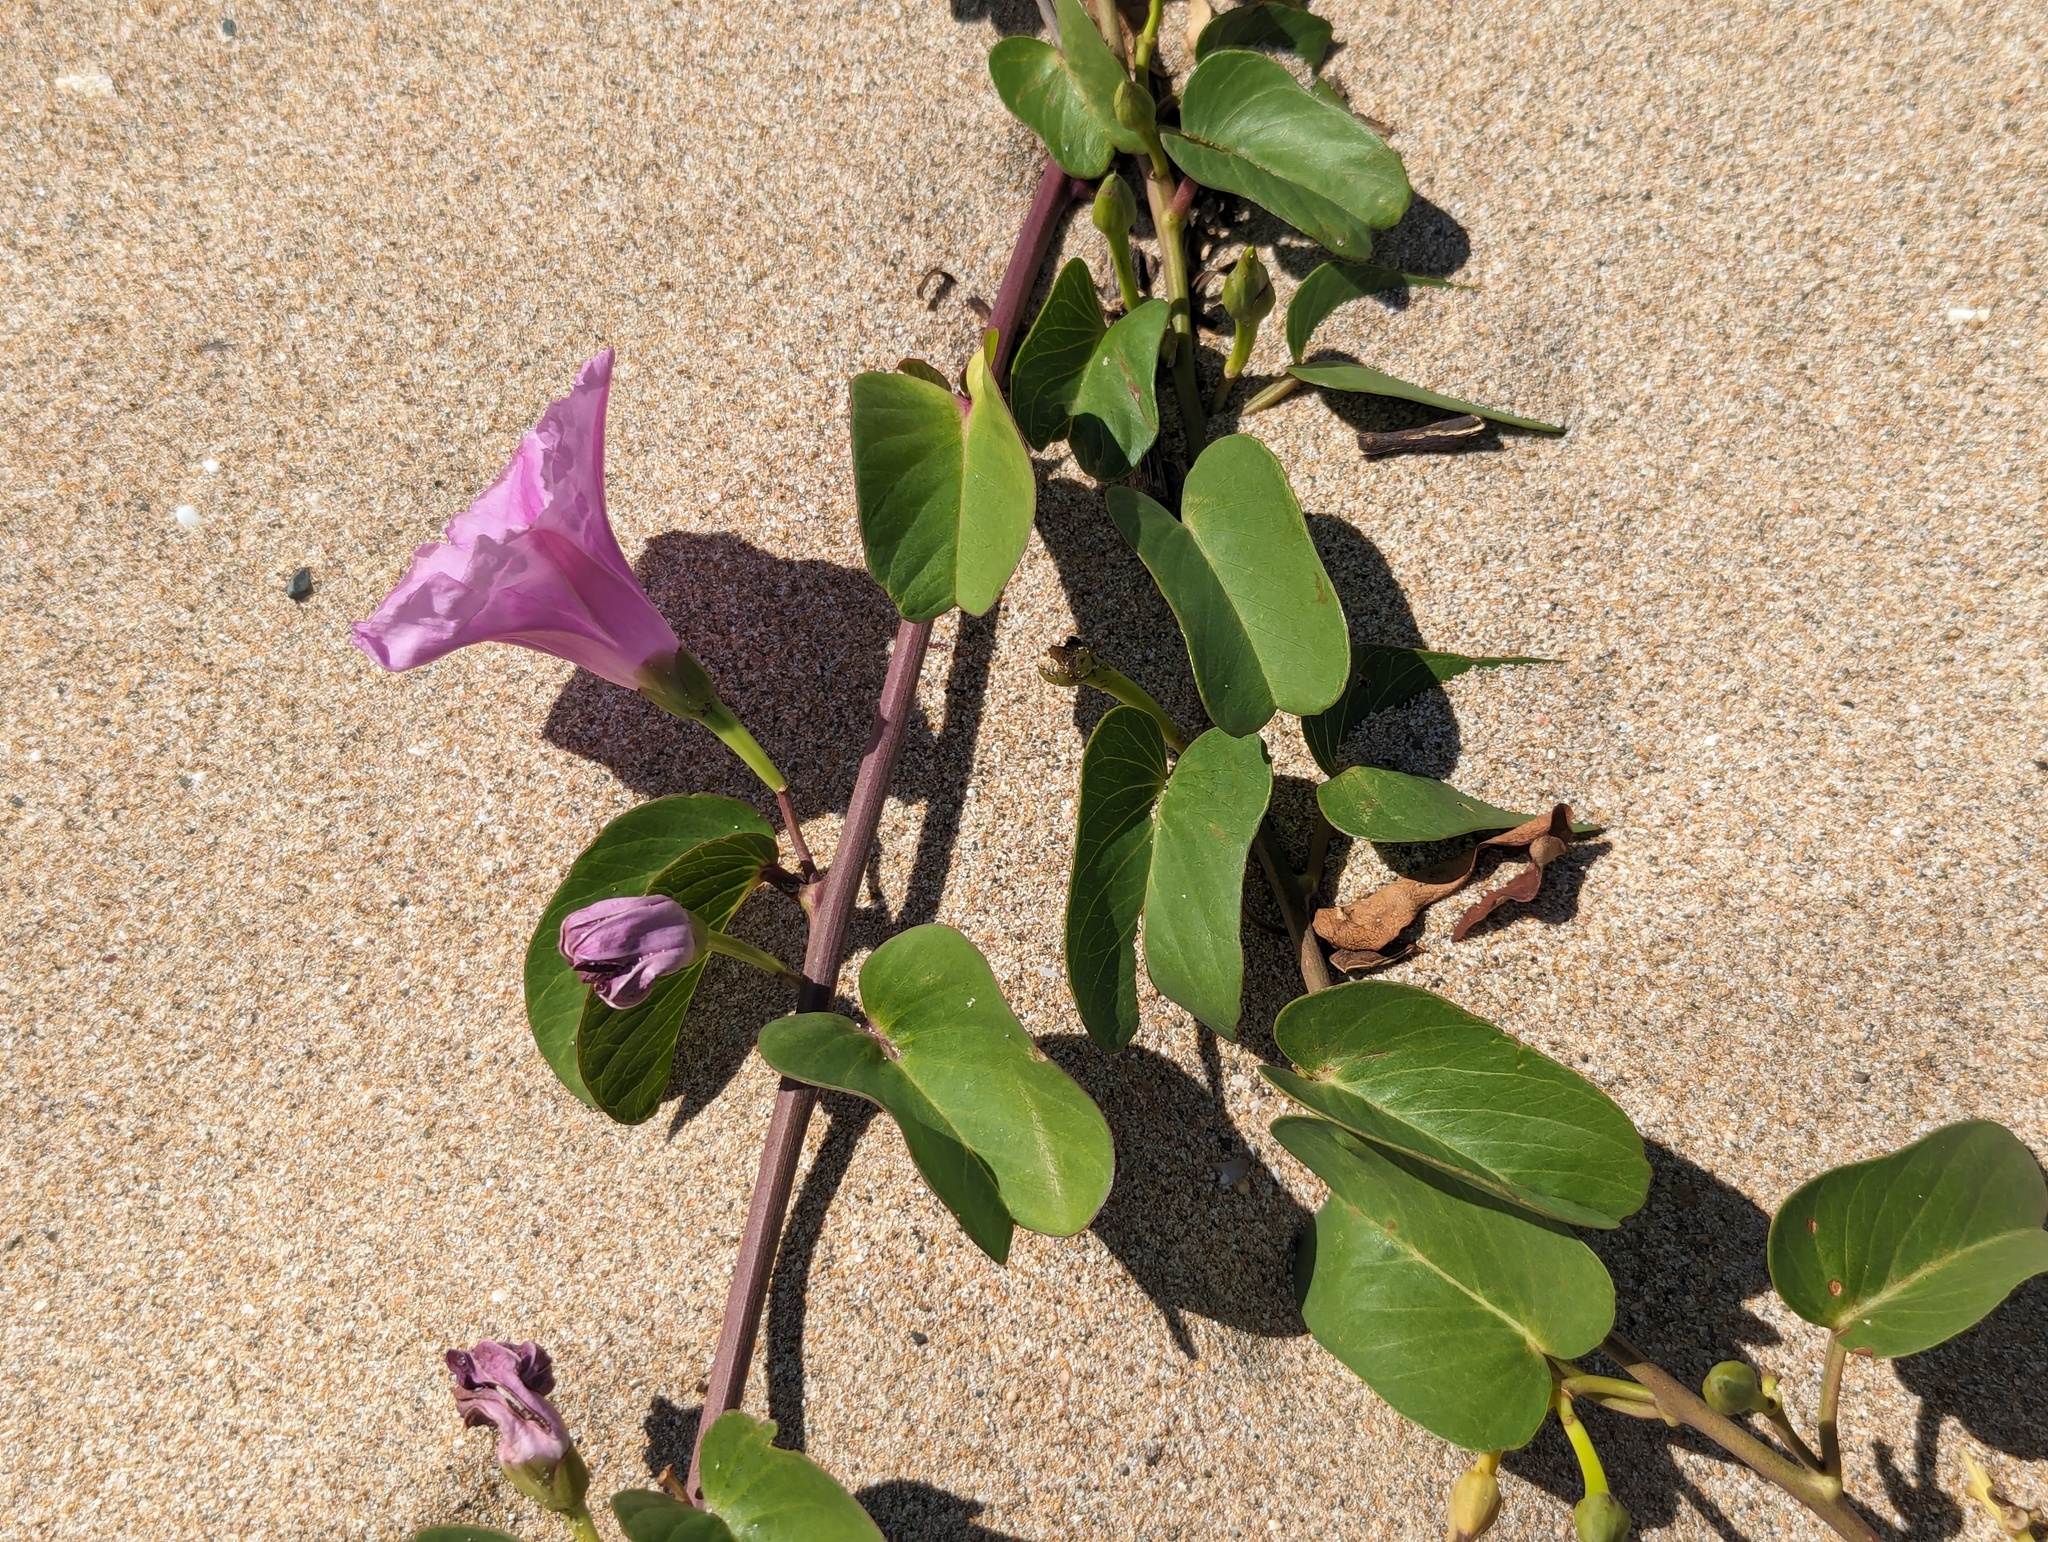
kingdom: Plantae
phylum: Tracheophyta
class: Magnoliopsida
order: Solanales
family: Convolvulaceae
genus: Ipomoea
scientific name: Ipomoea pes-caprae
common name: Beach morning glory
